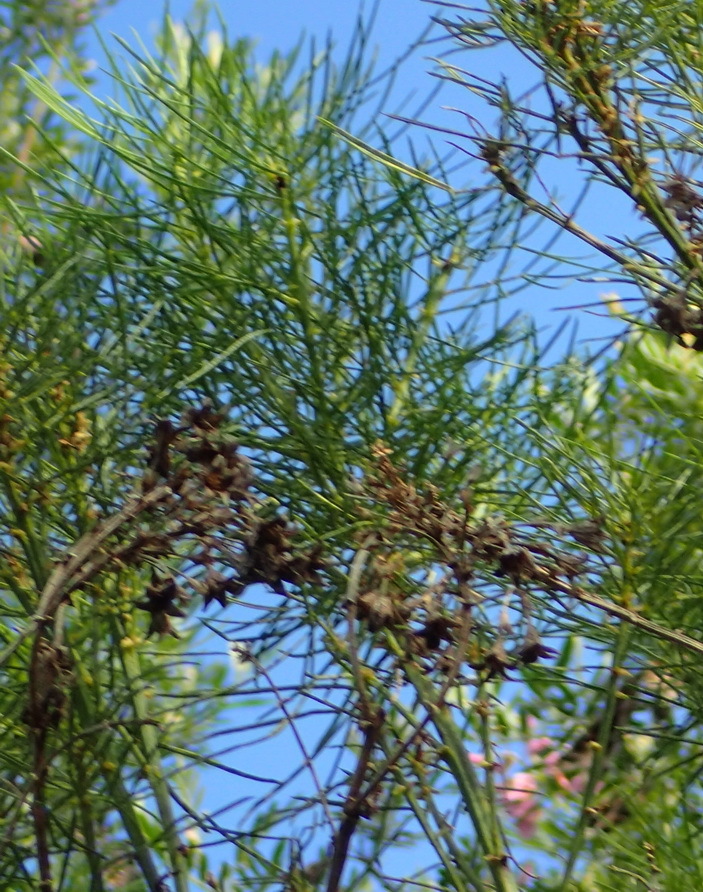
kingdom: Plantae
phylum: Tracheophyta
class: Magnoliopsida
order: Fabales
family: Fabaceae
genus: Psoralea
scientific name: Psoralea arborea
